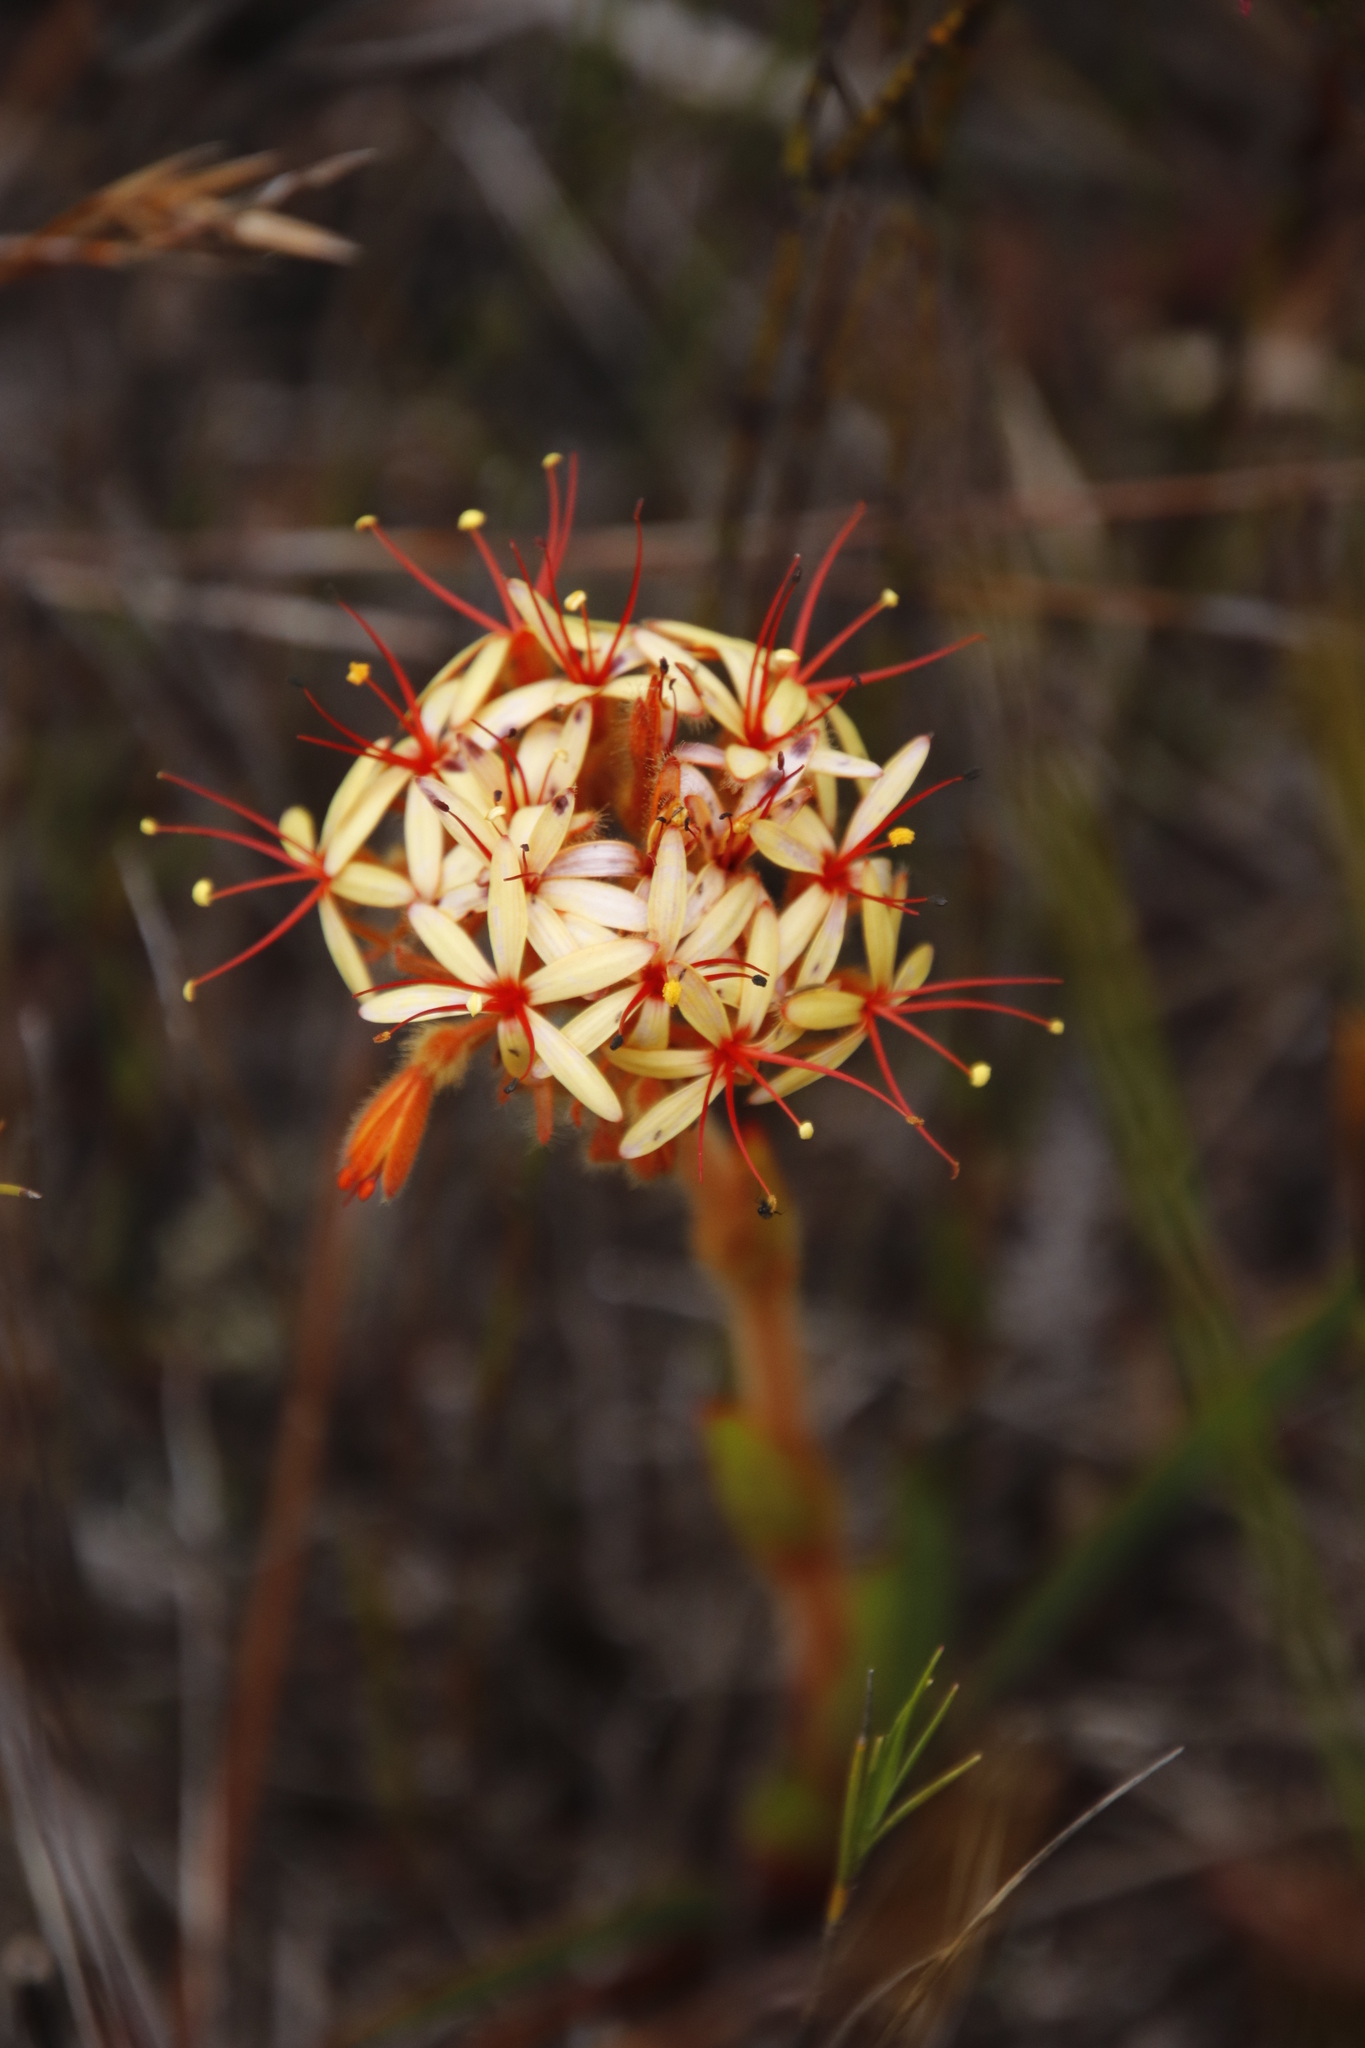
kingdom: Plantae
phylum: Tracheophyta
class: Liliopsida
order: Commelinales
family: Haemodoraceae
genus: Dilatris
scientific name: Dilatris viscosa
